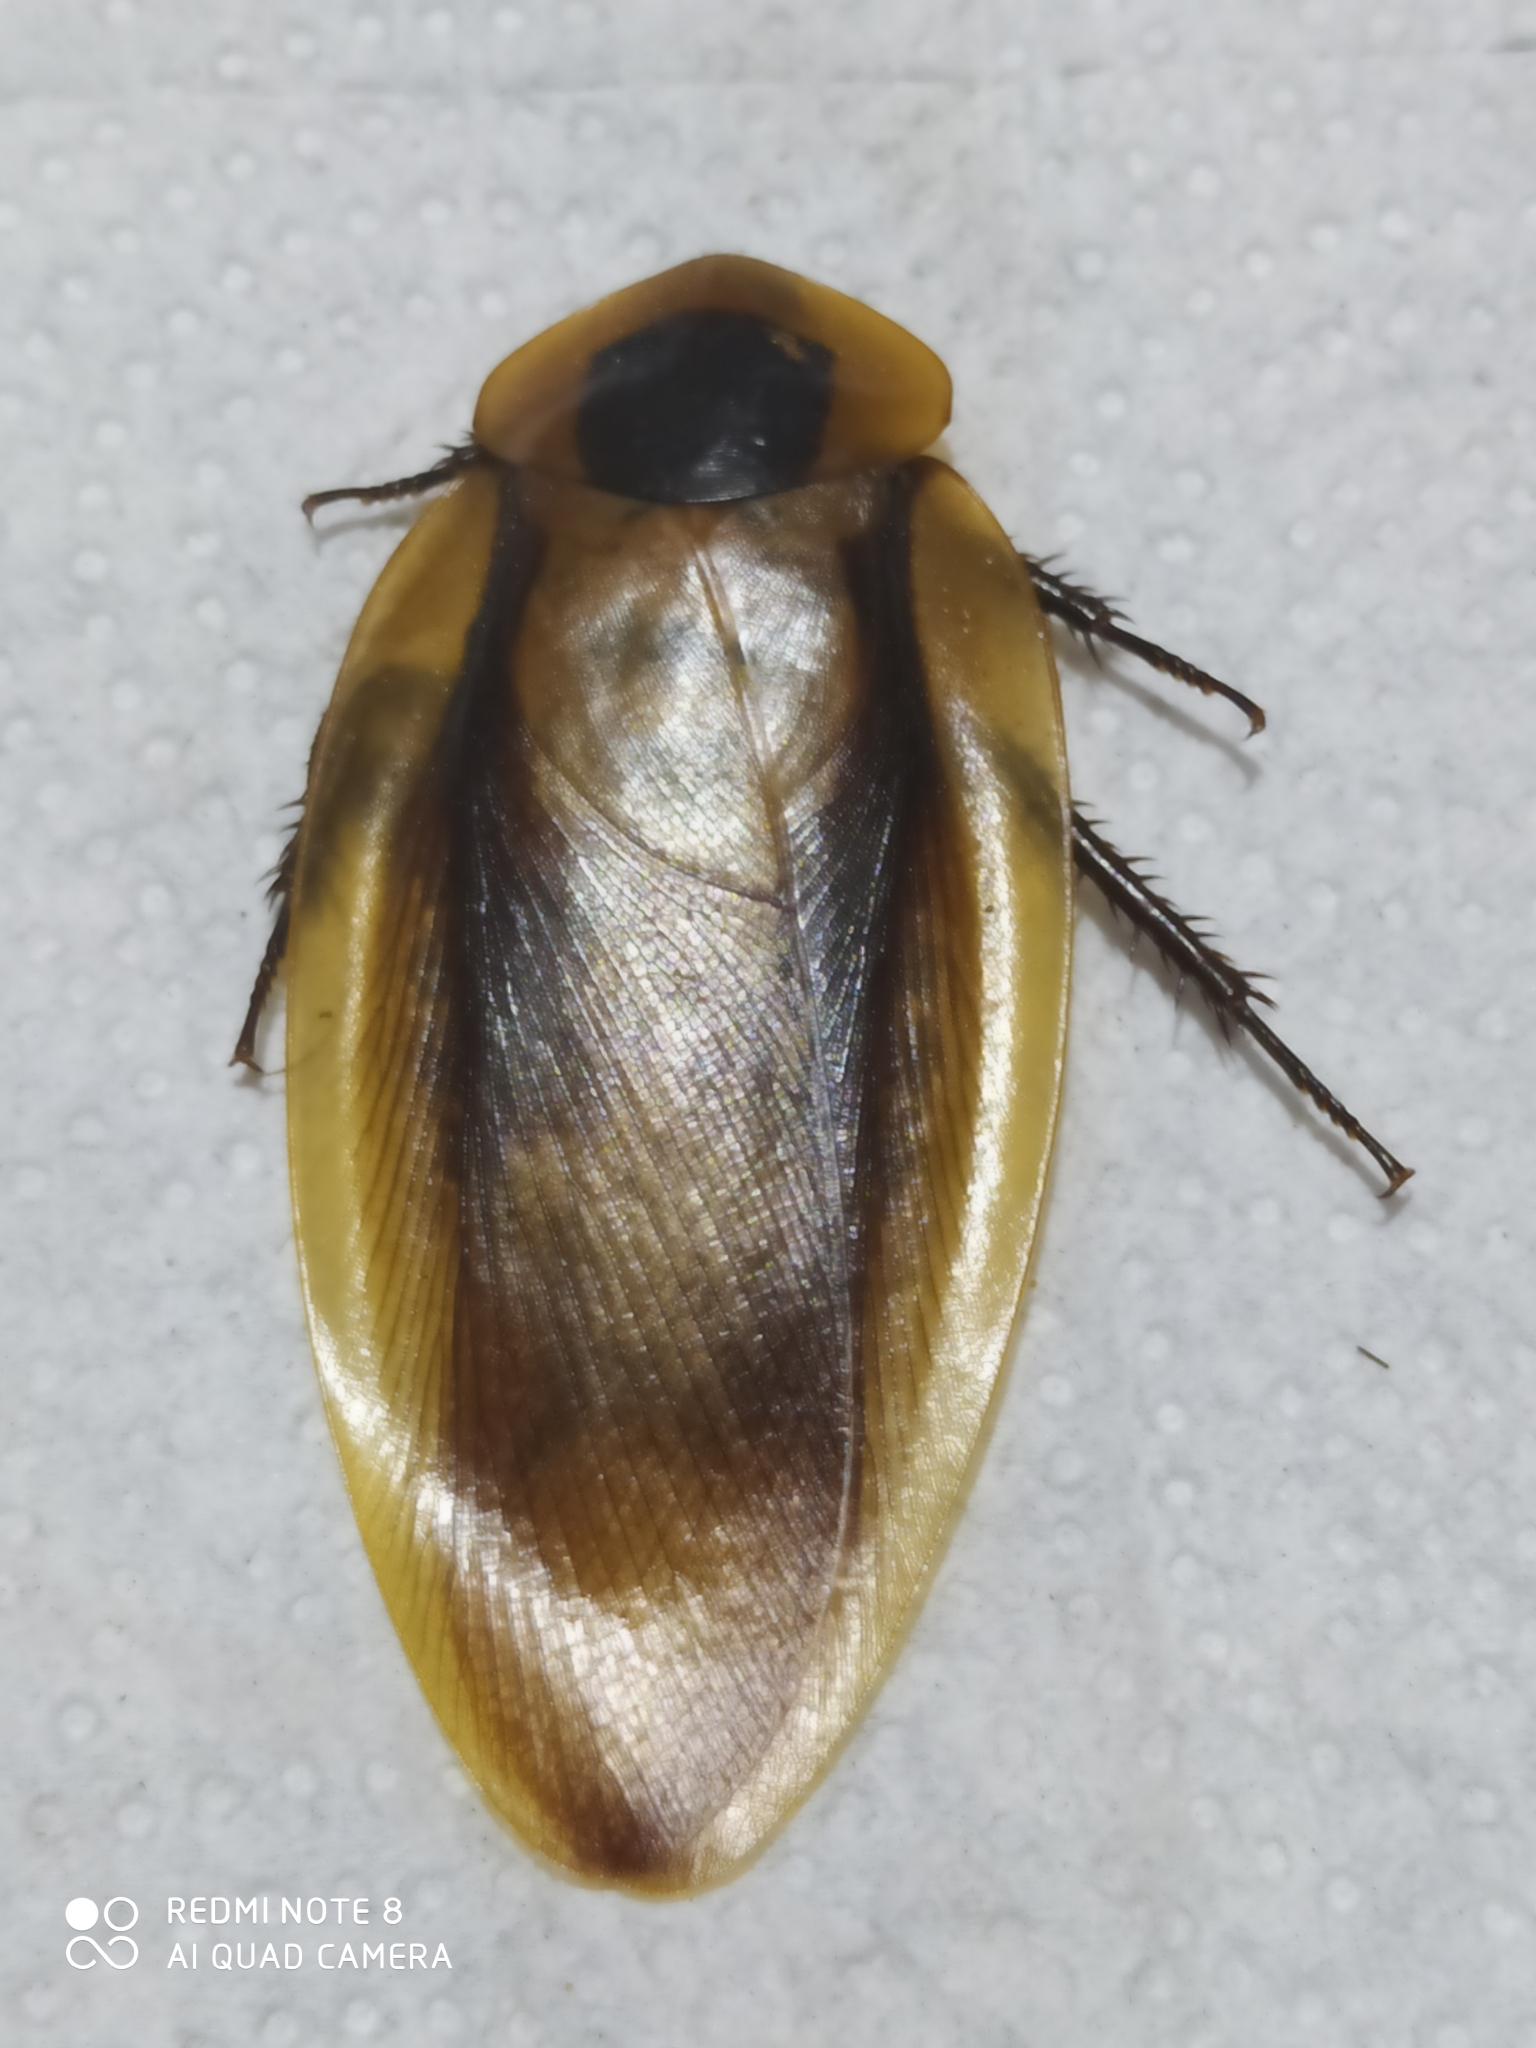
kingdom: Animalia
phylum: Arthropoda
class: Insecta
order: Blattodea
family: Blaberidae
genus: Blaberus
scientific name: Blaberus craniifer
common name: Death's head cockroach
